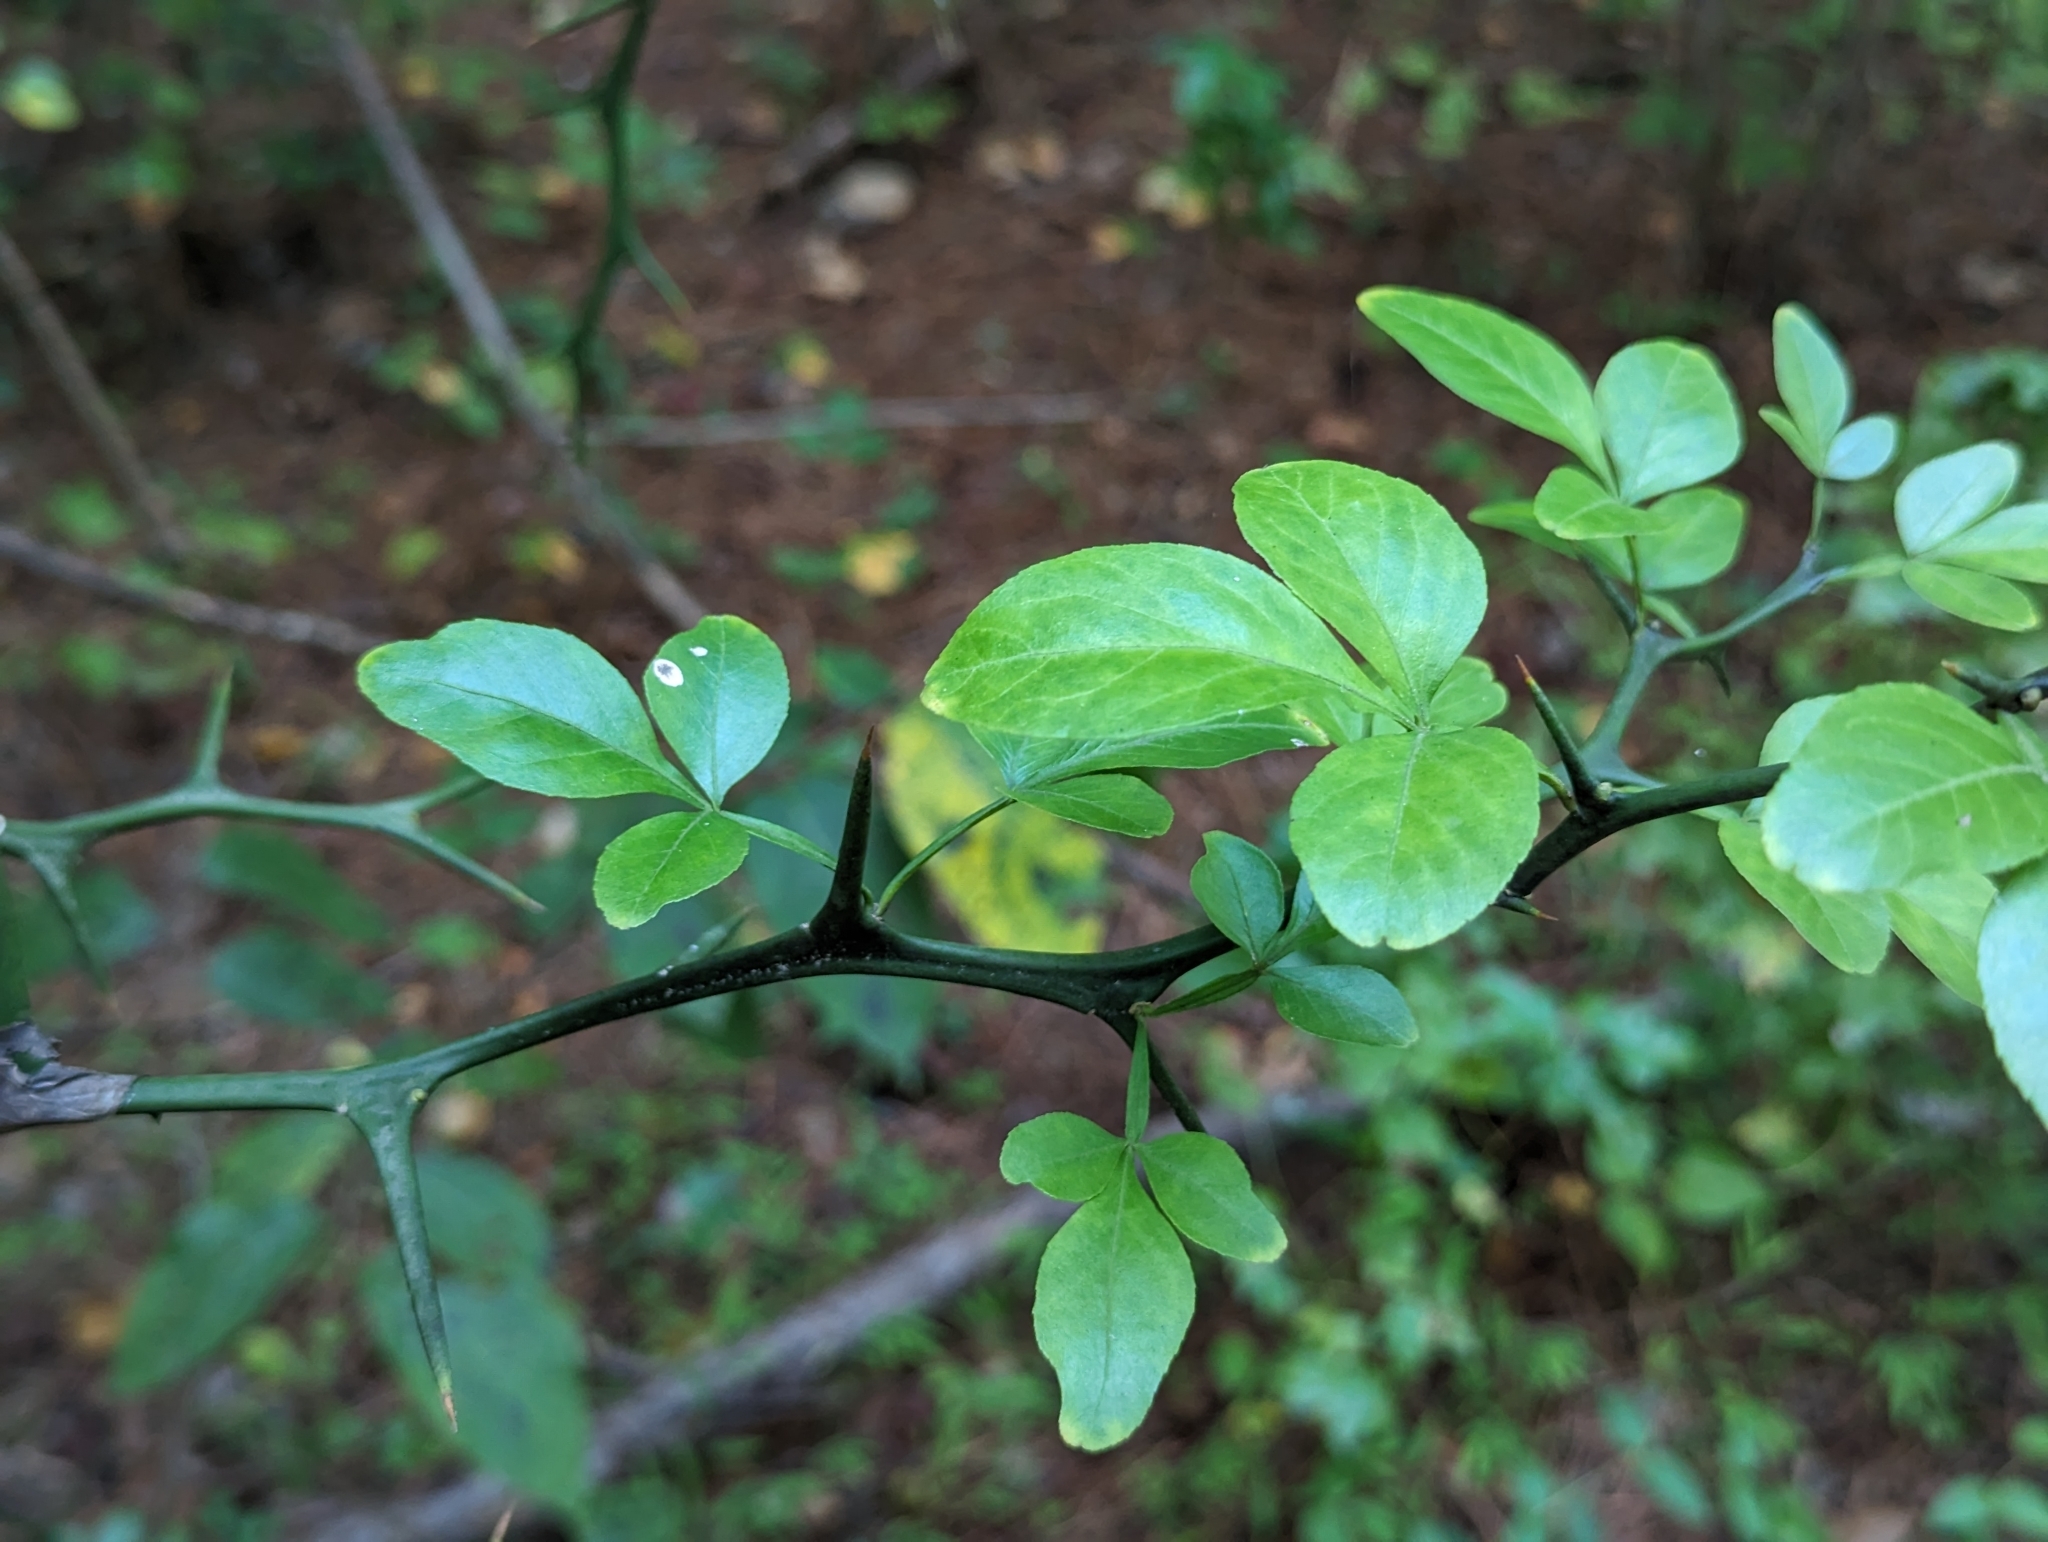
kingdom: Plantae
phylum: Tracheophyta
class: Magnoliopsida
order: Sapindales
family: Rutaceae
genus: Citrus
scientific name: Citrus trifoliata
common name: Japanese bitter-orange
